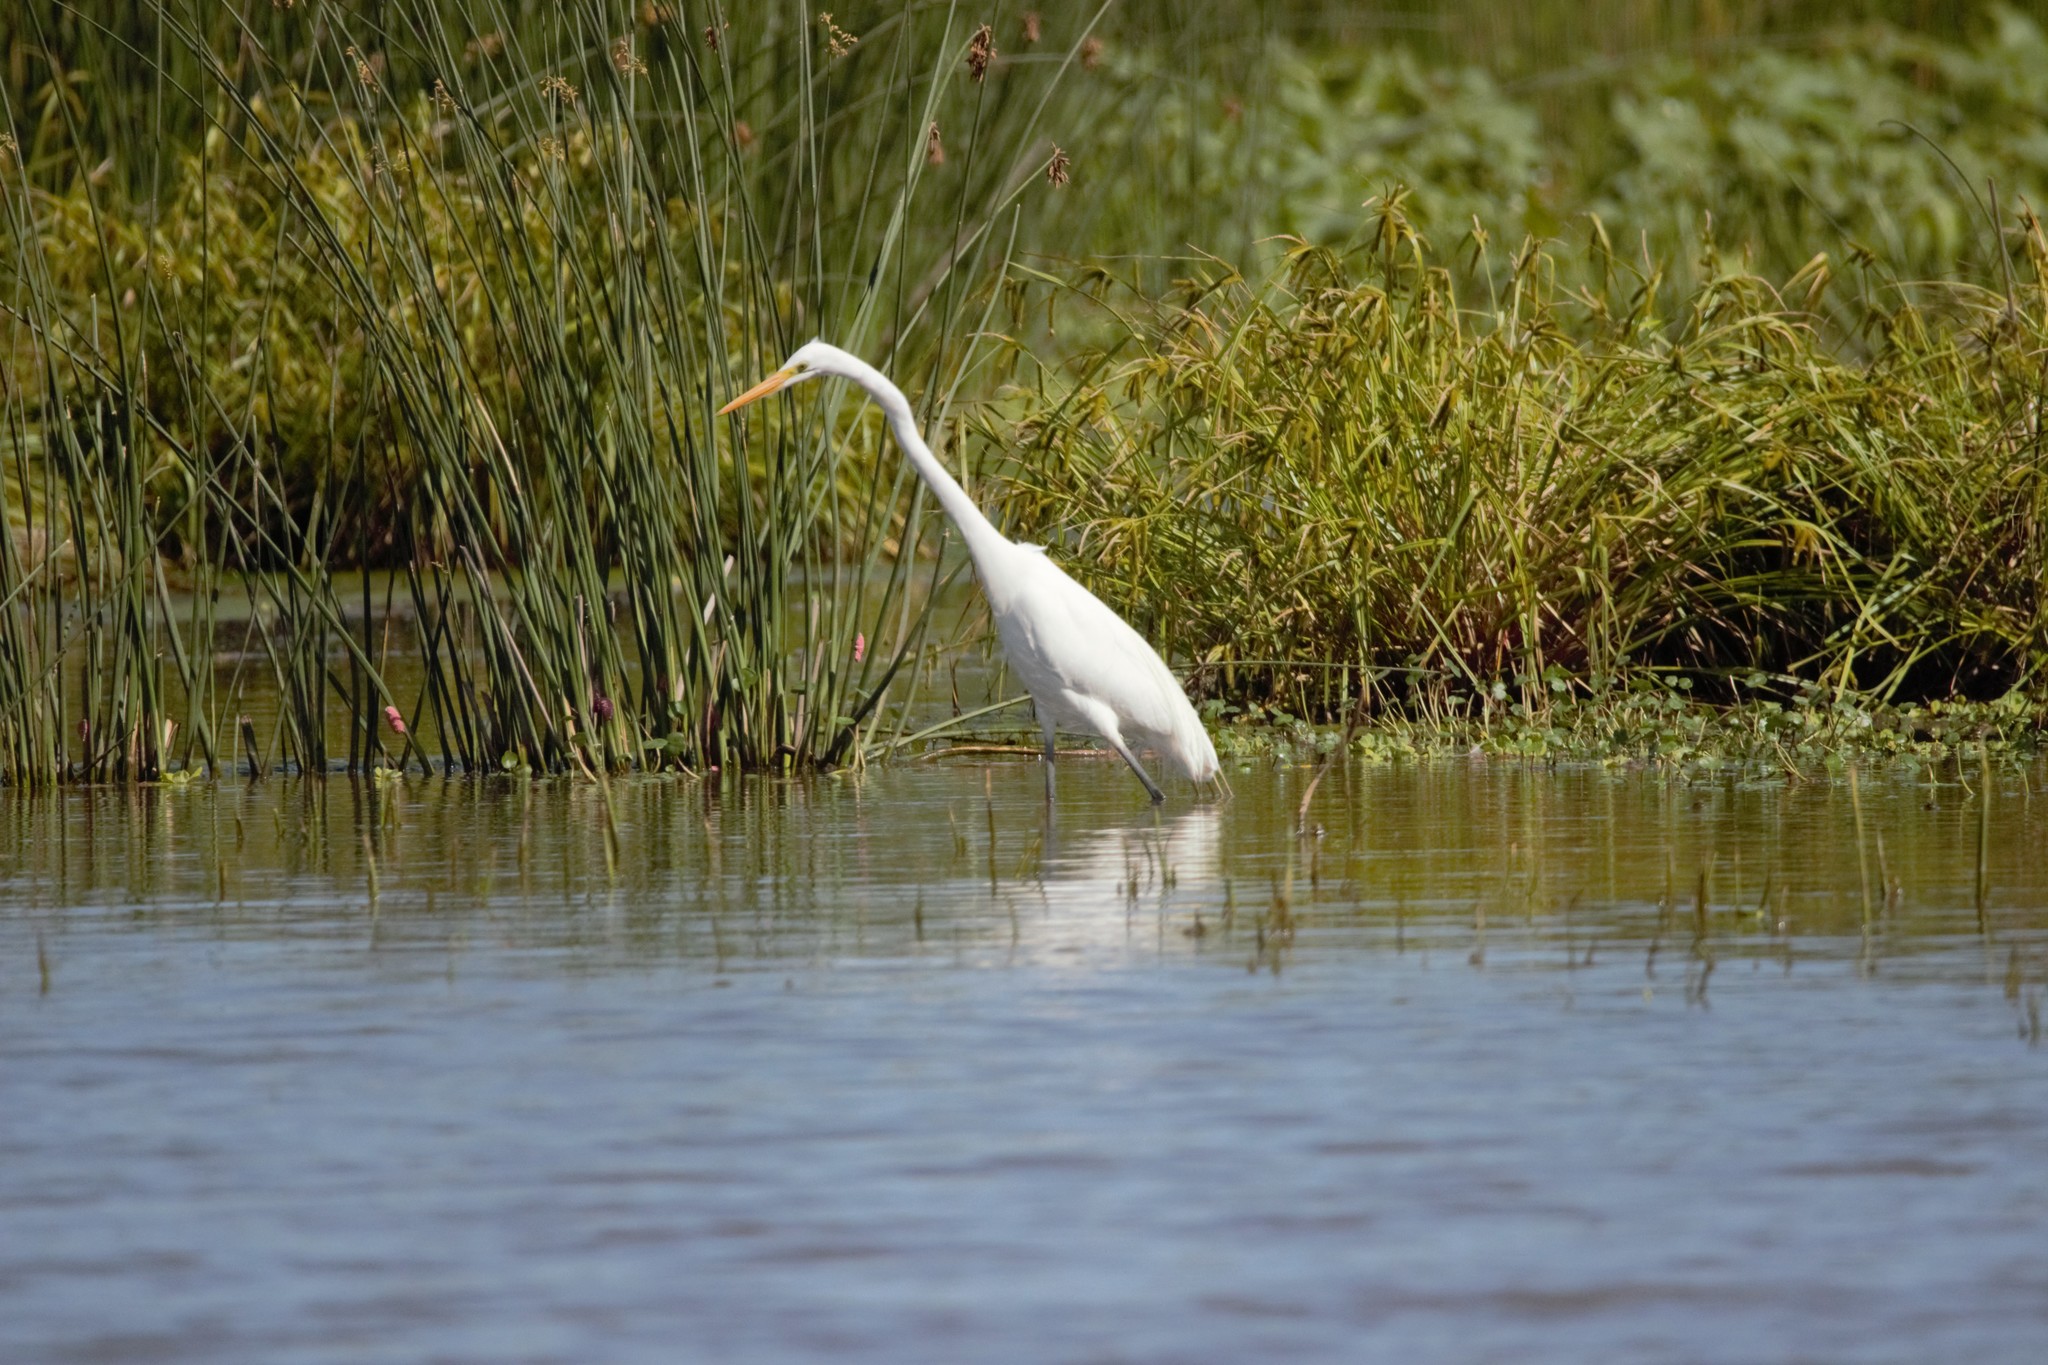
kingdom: Animalia
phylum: Chordata
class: Aves
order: Pelecaniformes
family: Ardeidae
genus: Ardea
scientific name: Ardea alba
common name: Great egret
